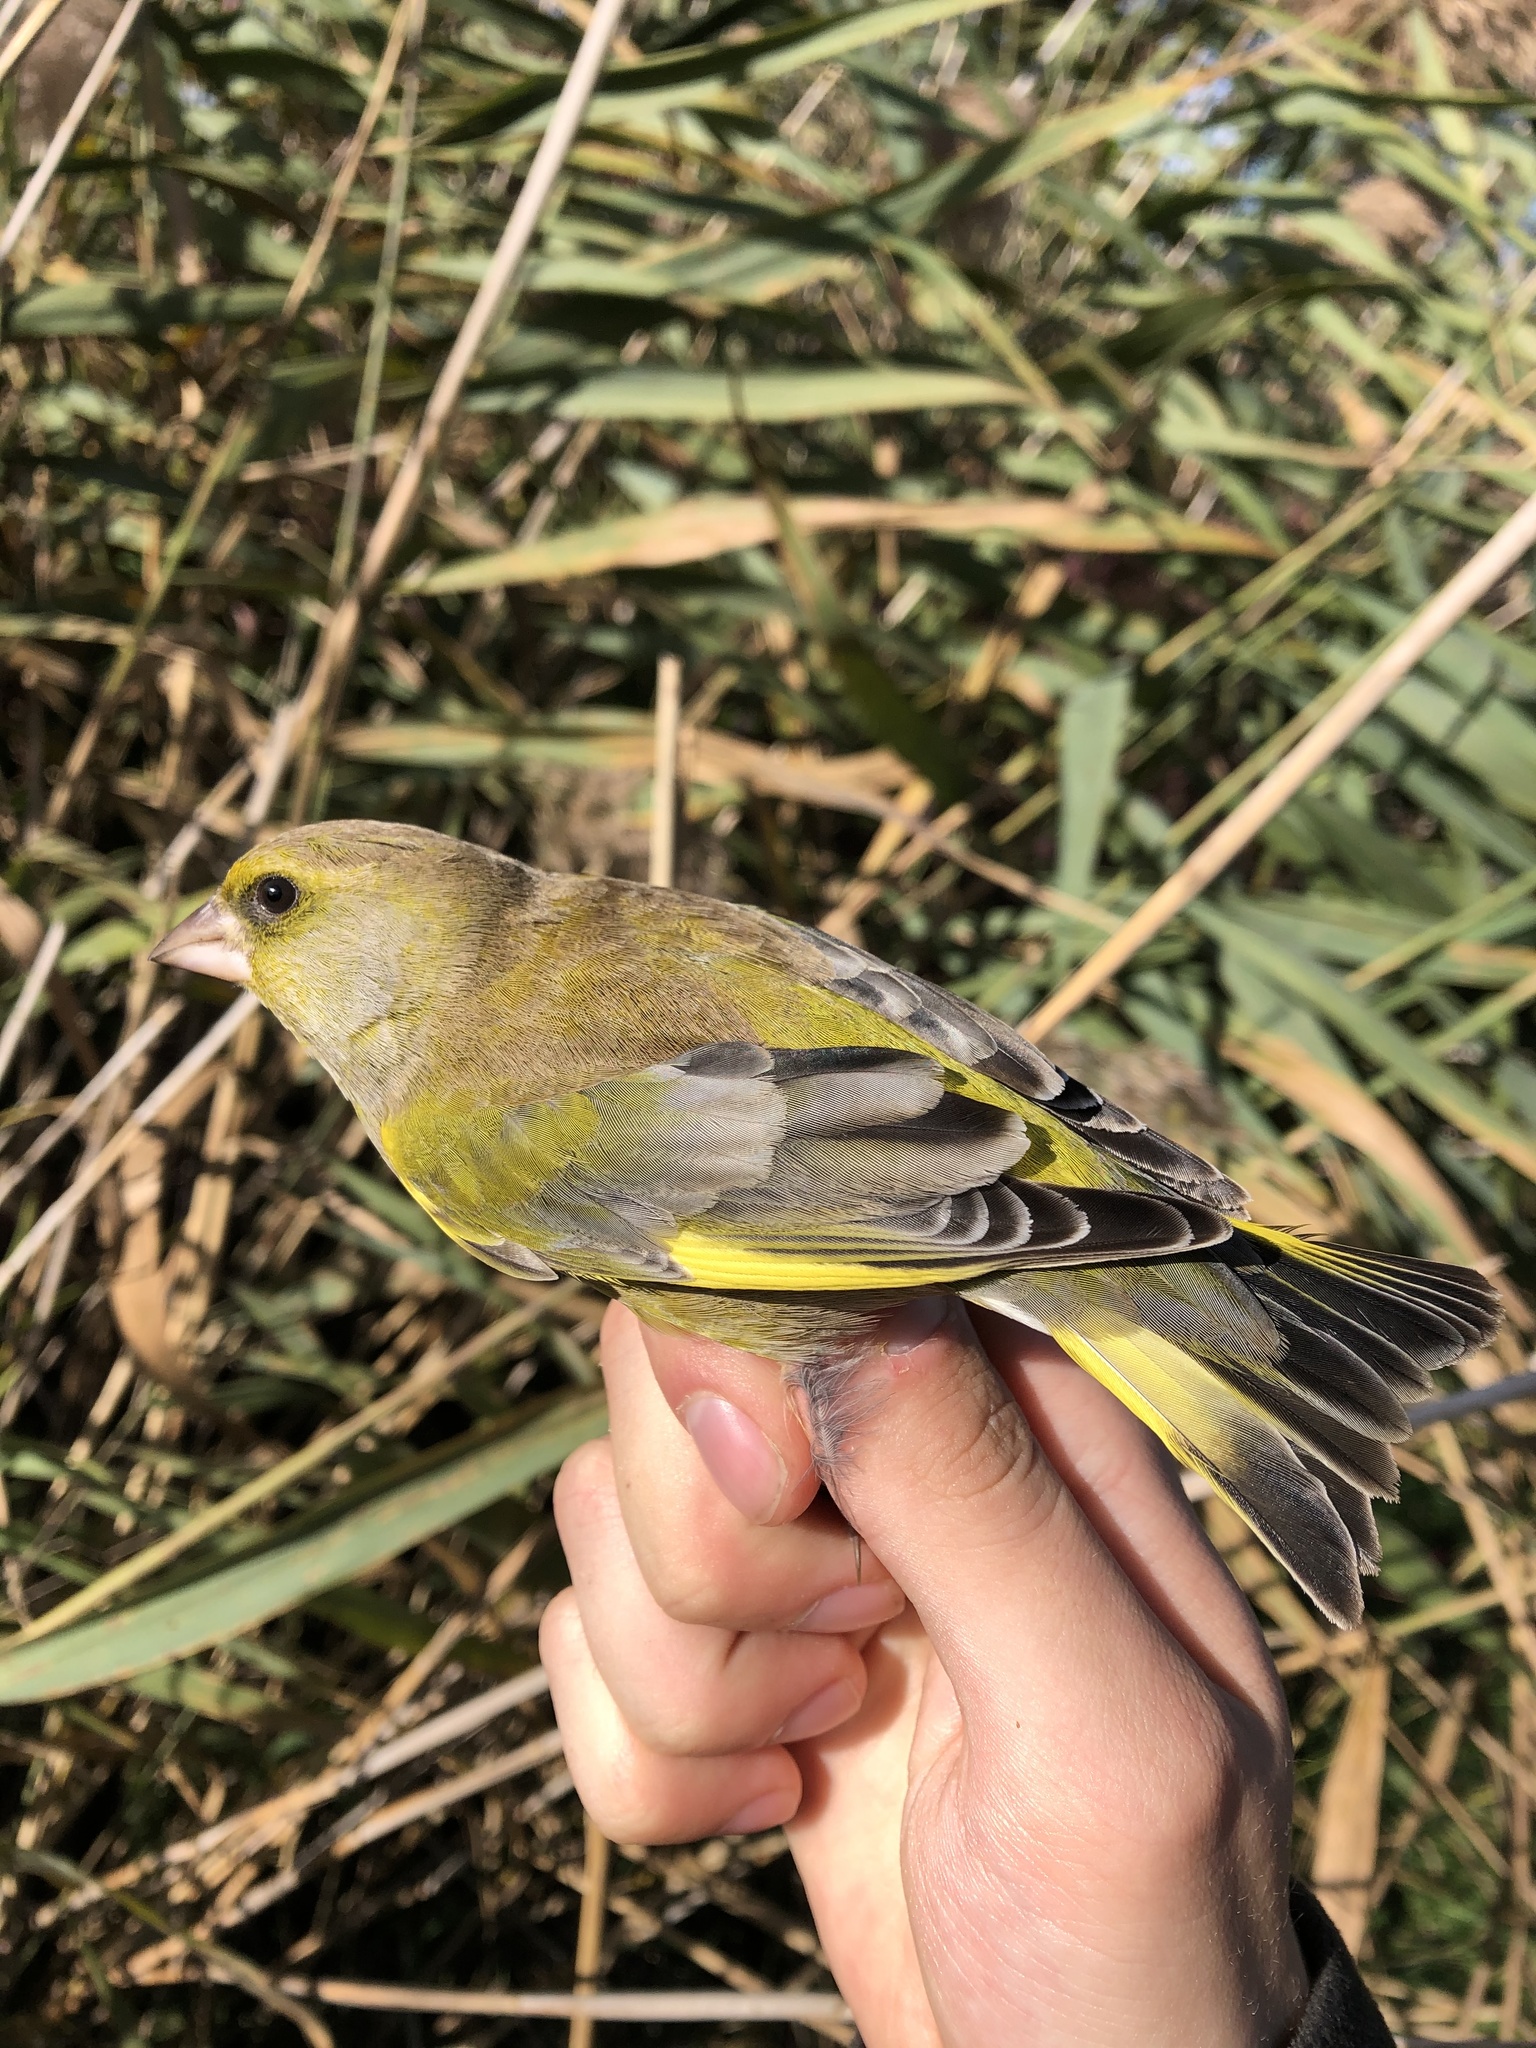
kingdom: Plantae
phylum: Tracheophyta
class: Liliopsida
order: Poales
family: Poaceae
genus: Chloris
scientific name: Chloris chloris
